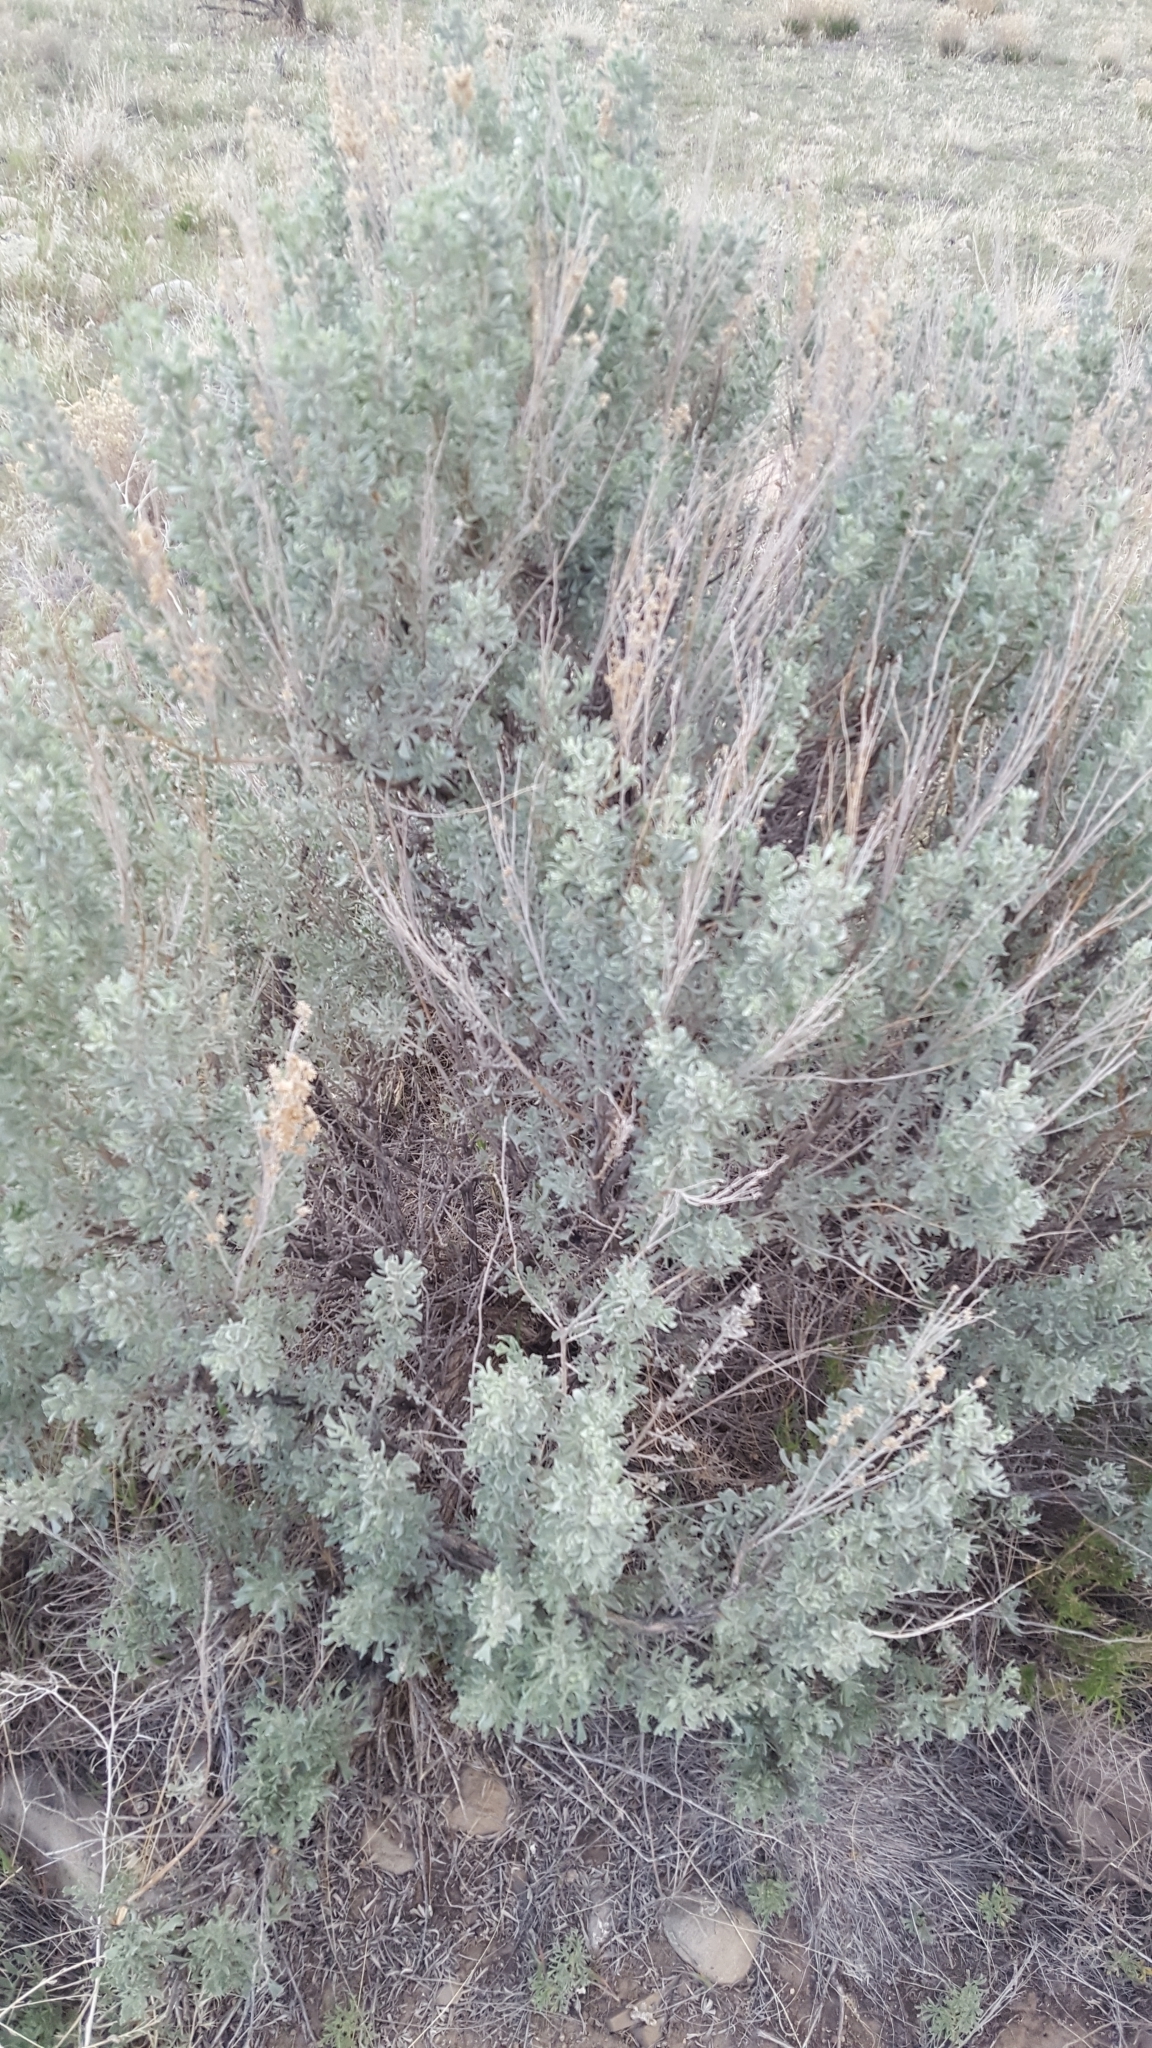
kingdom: Plantae
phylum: Tracheophyta
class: Magnoliopsida
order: Asterales
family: Asteraceae
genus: Artemisia
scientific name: Artemisia tridentata
